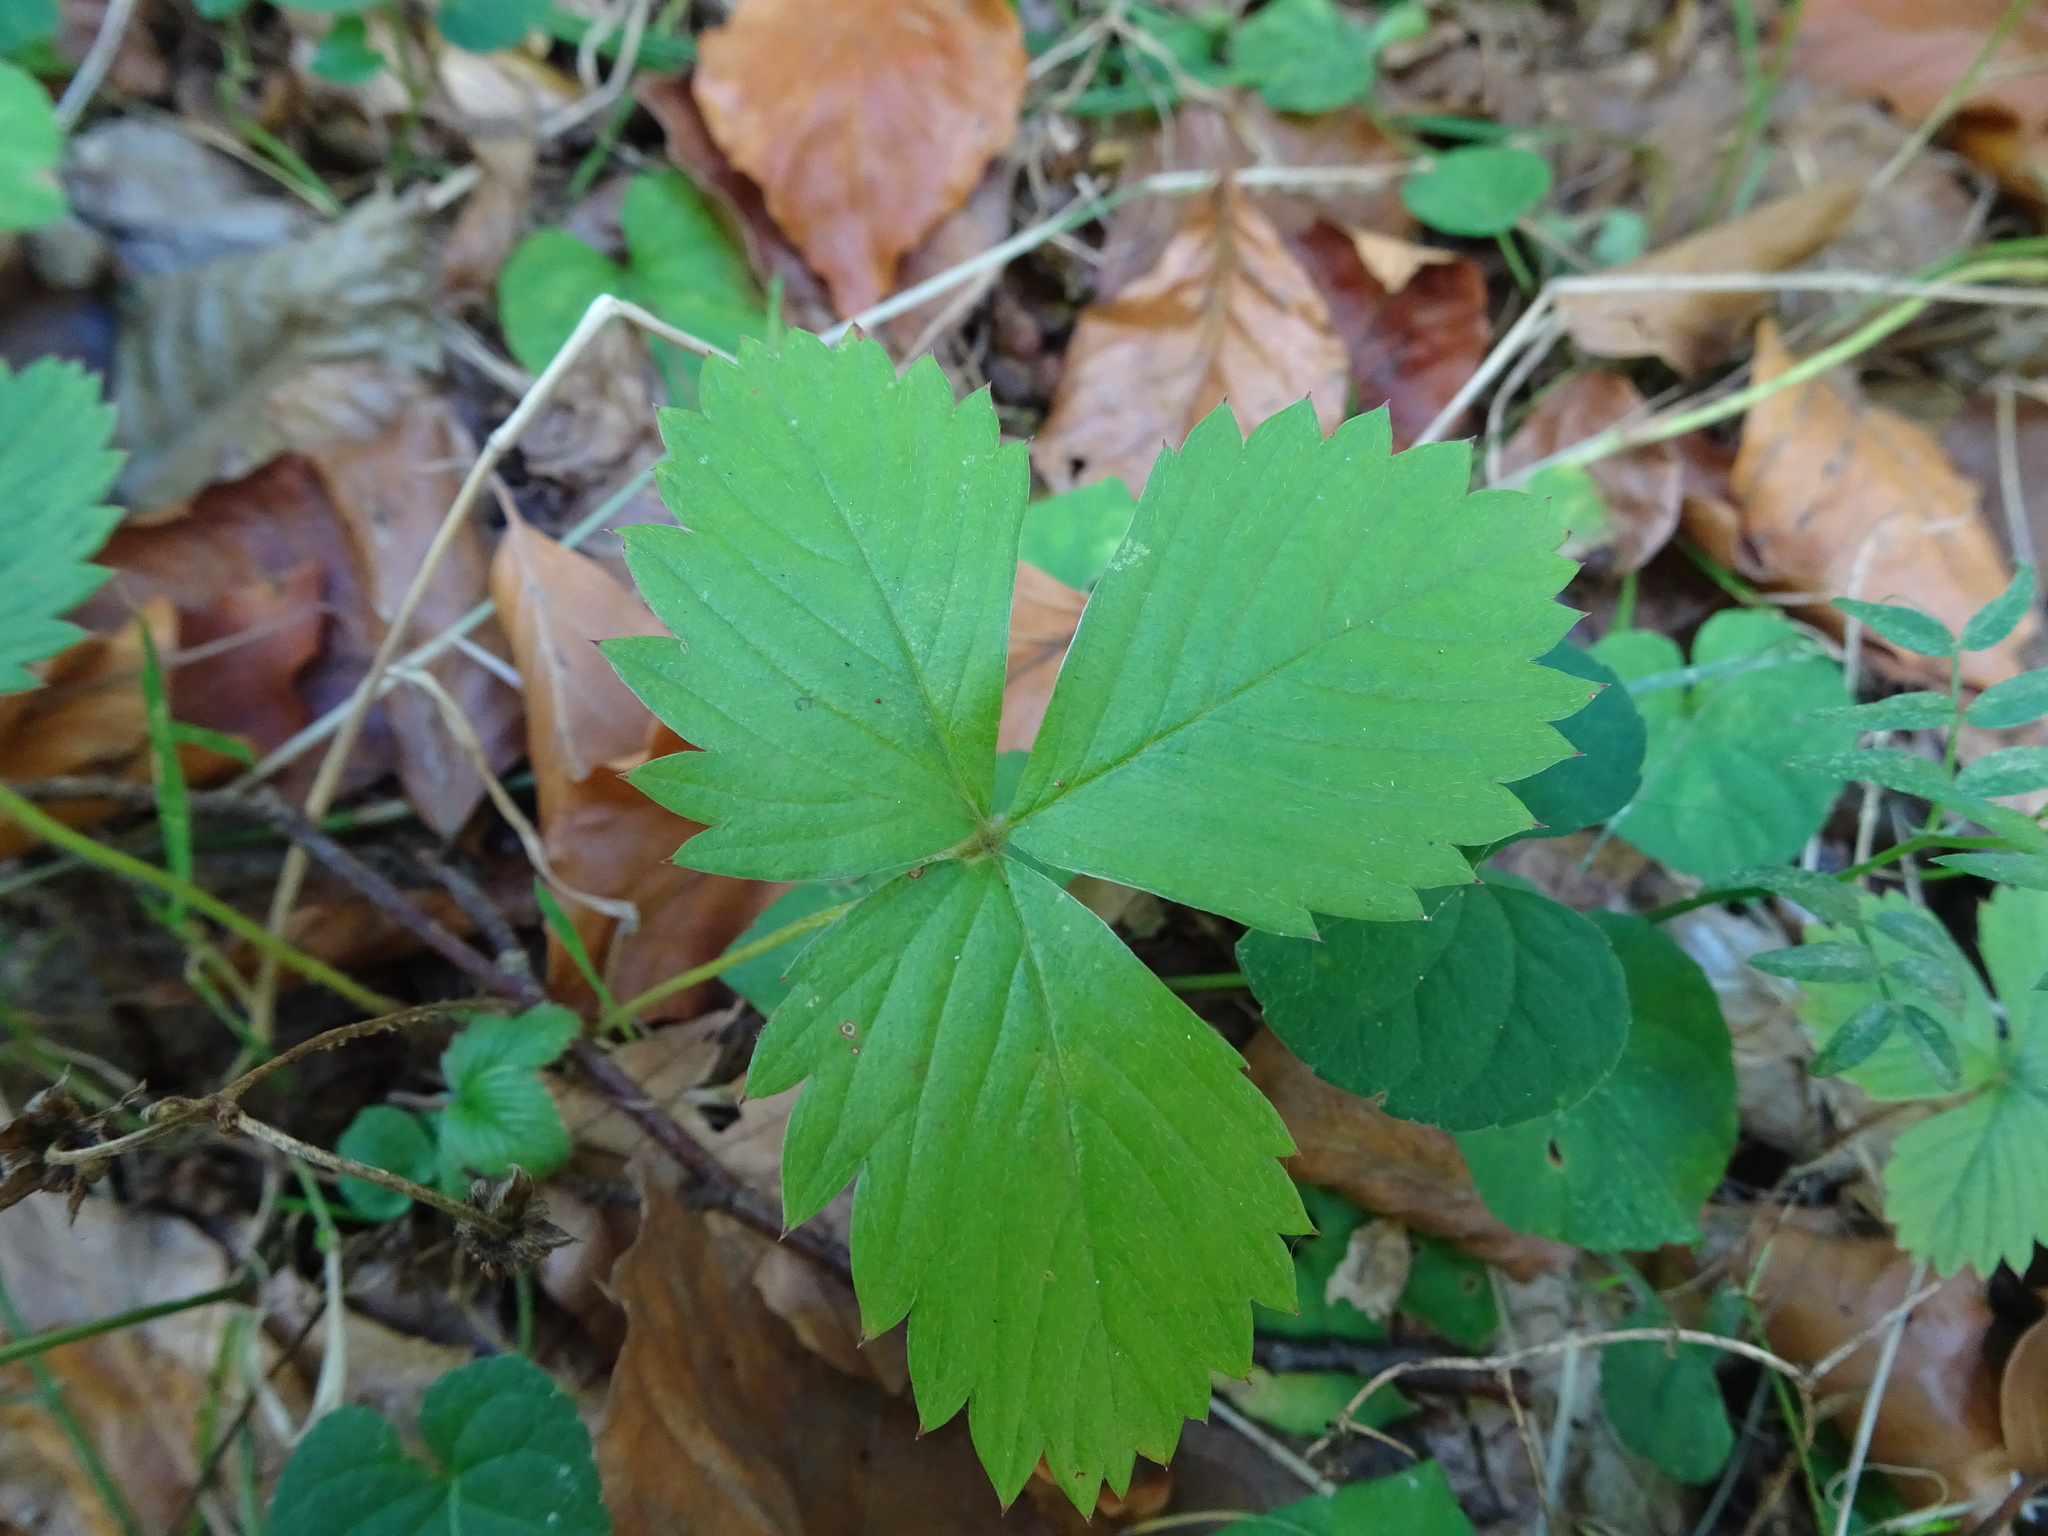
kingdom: Plantae
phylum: Tracheophyta
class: Magnoliopsida
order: Rosales
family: Rosaceae
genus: Fragaria
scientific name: Fragaria vesca
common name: Wild strawberry
